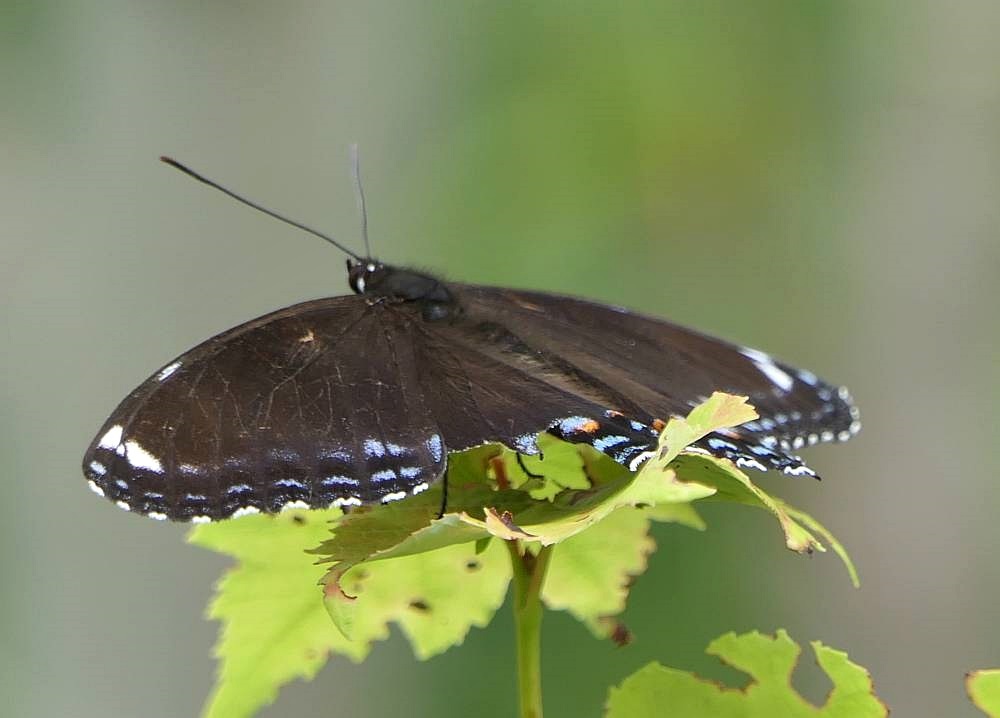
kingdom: Animalia
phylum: Arthropoda
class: Insecta
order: Lepidoptera
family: Nymphalidae
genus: Limenitis
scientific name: Limenitis astyanax
